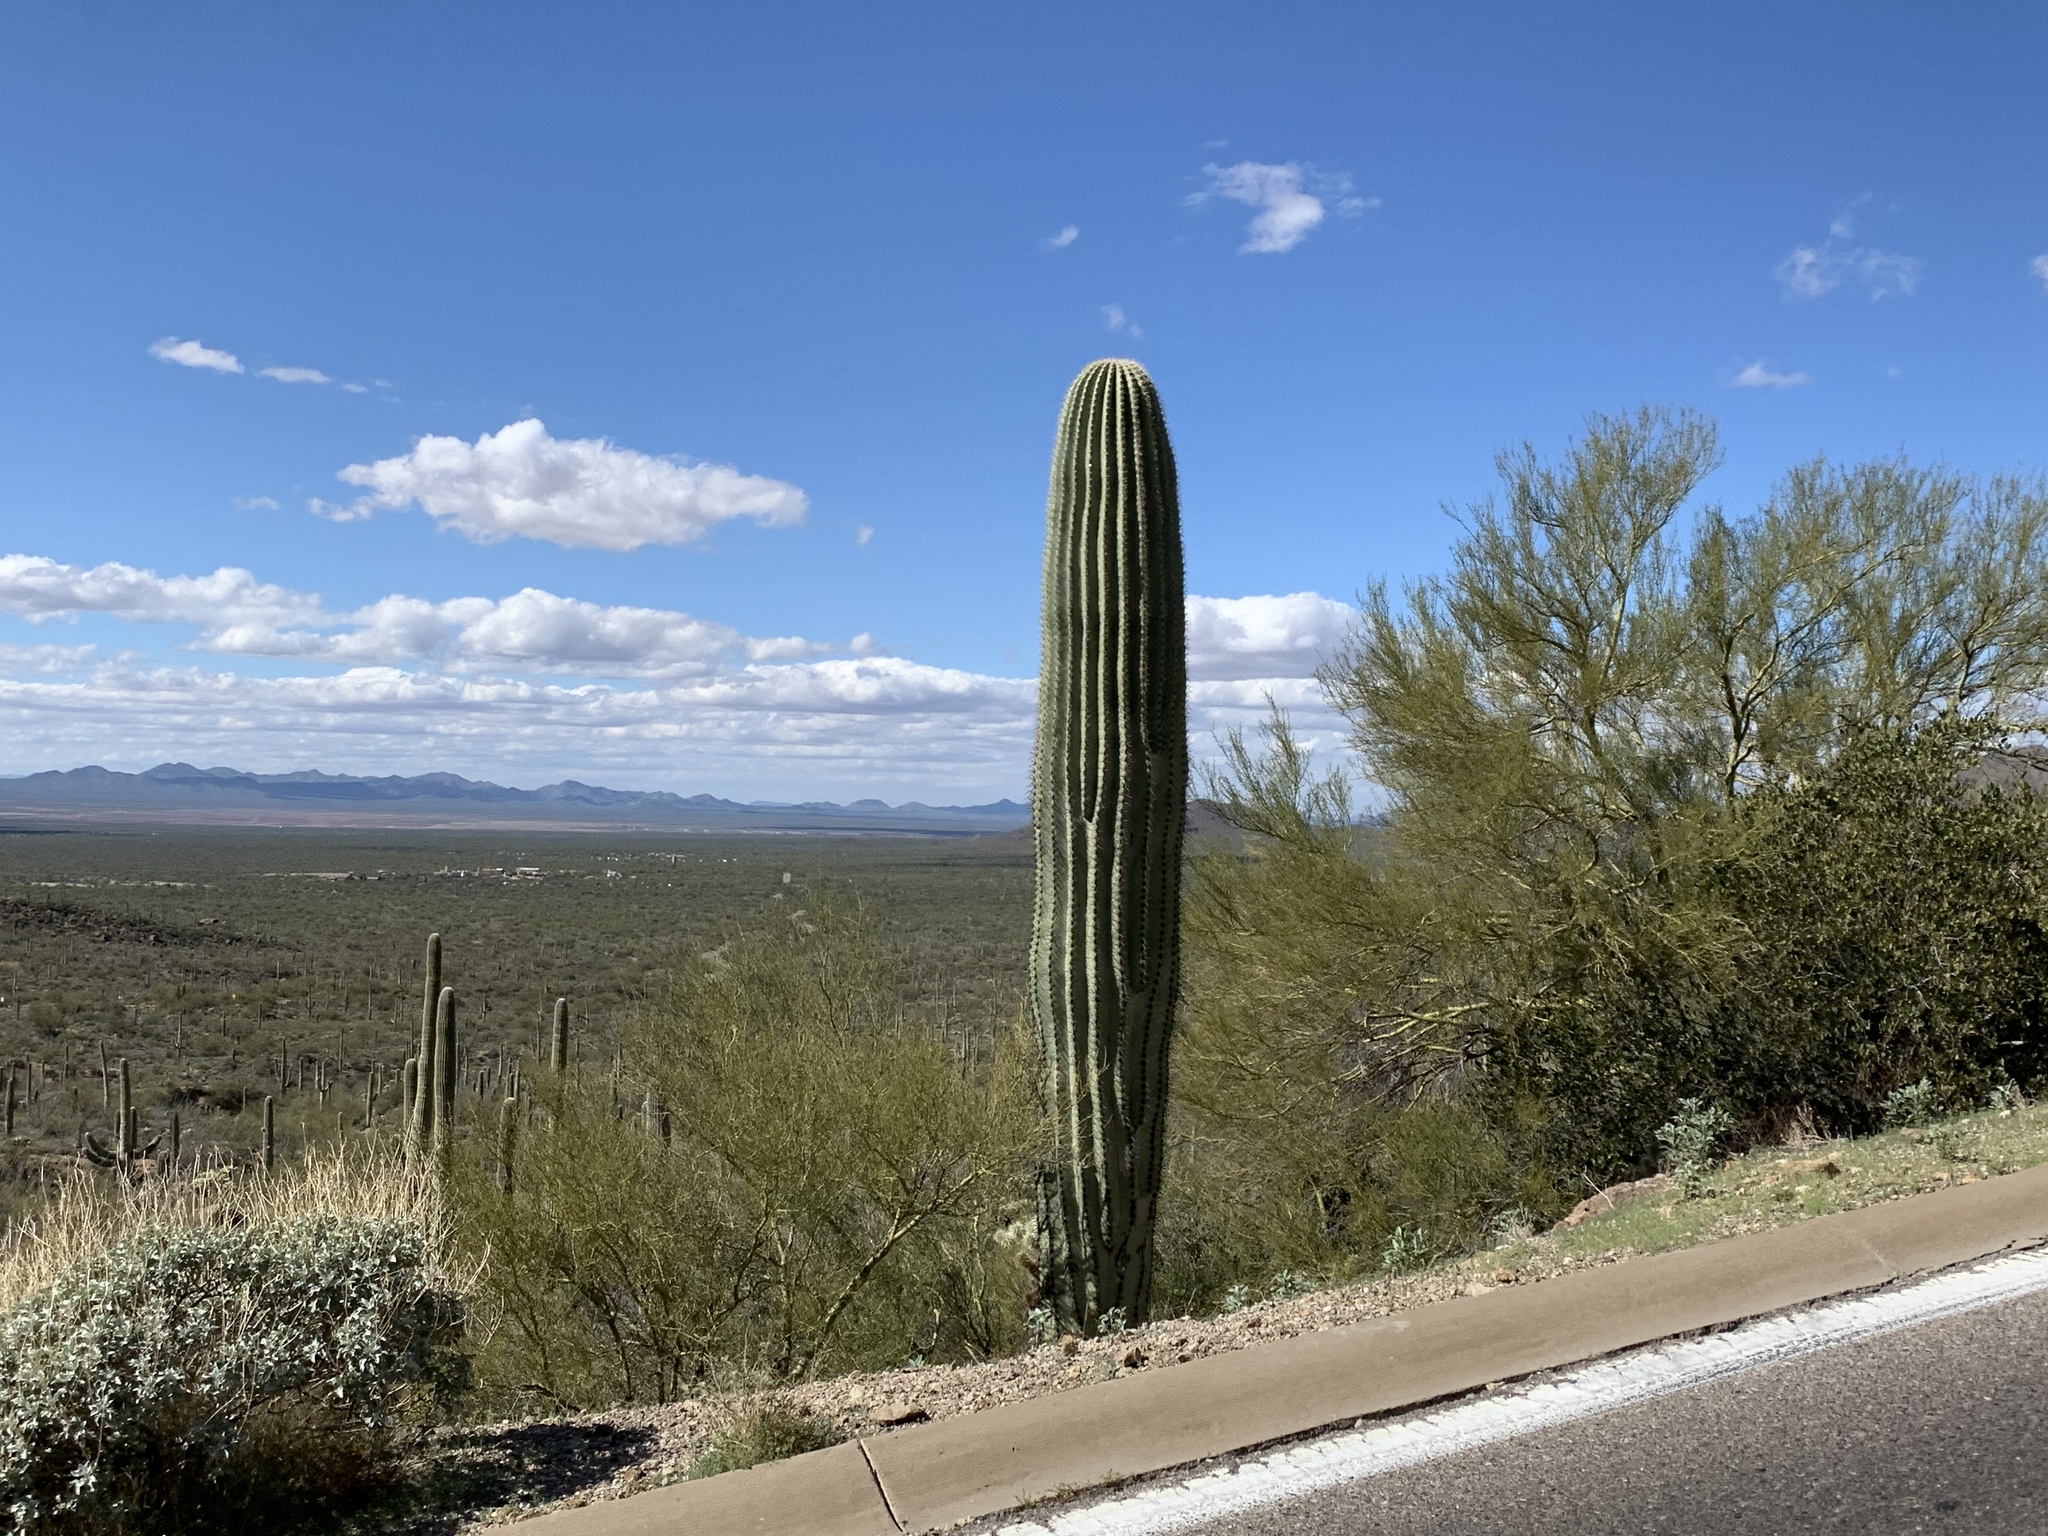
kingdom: Plantae
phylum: Tracheophyta
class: Magnoliopsida
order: Caryophyllales
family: Cactaceae
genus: Carnegiea
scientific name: Carnegiea gigantea
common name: Saguaro
